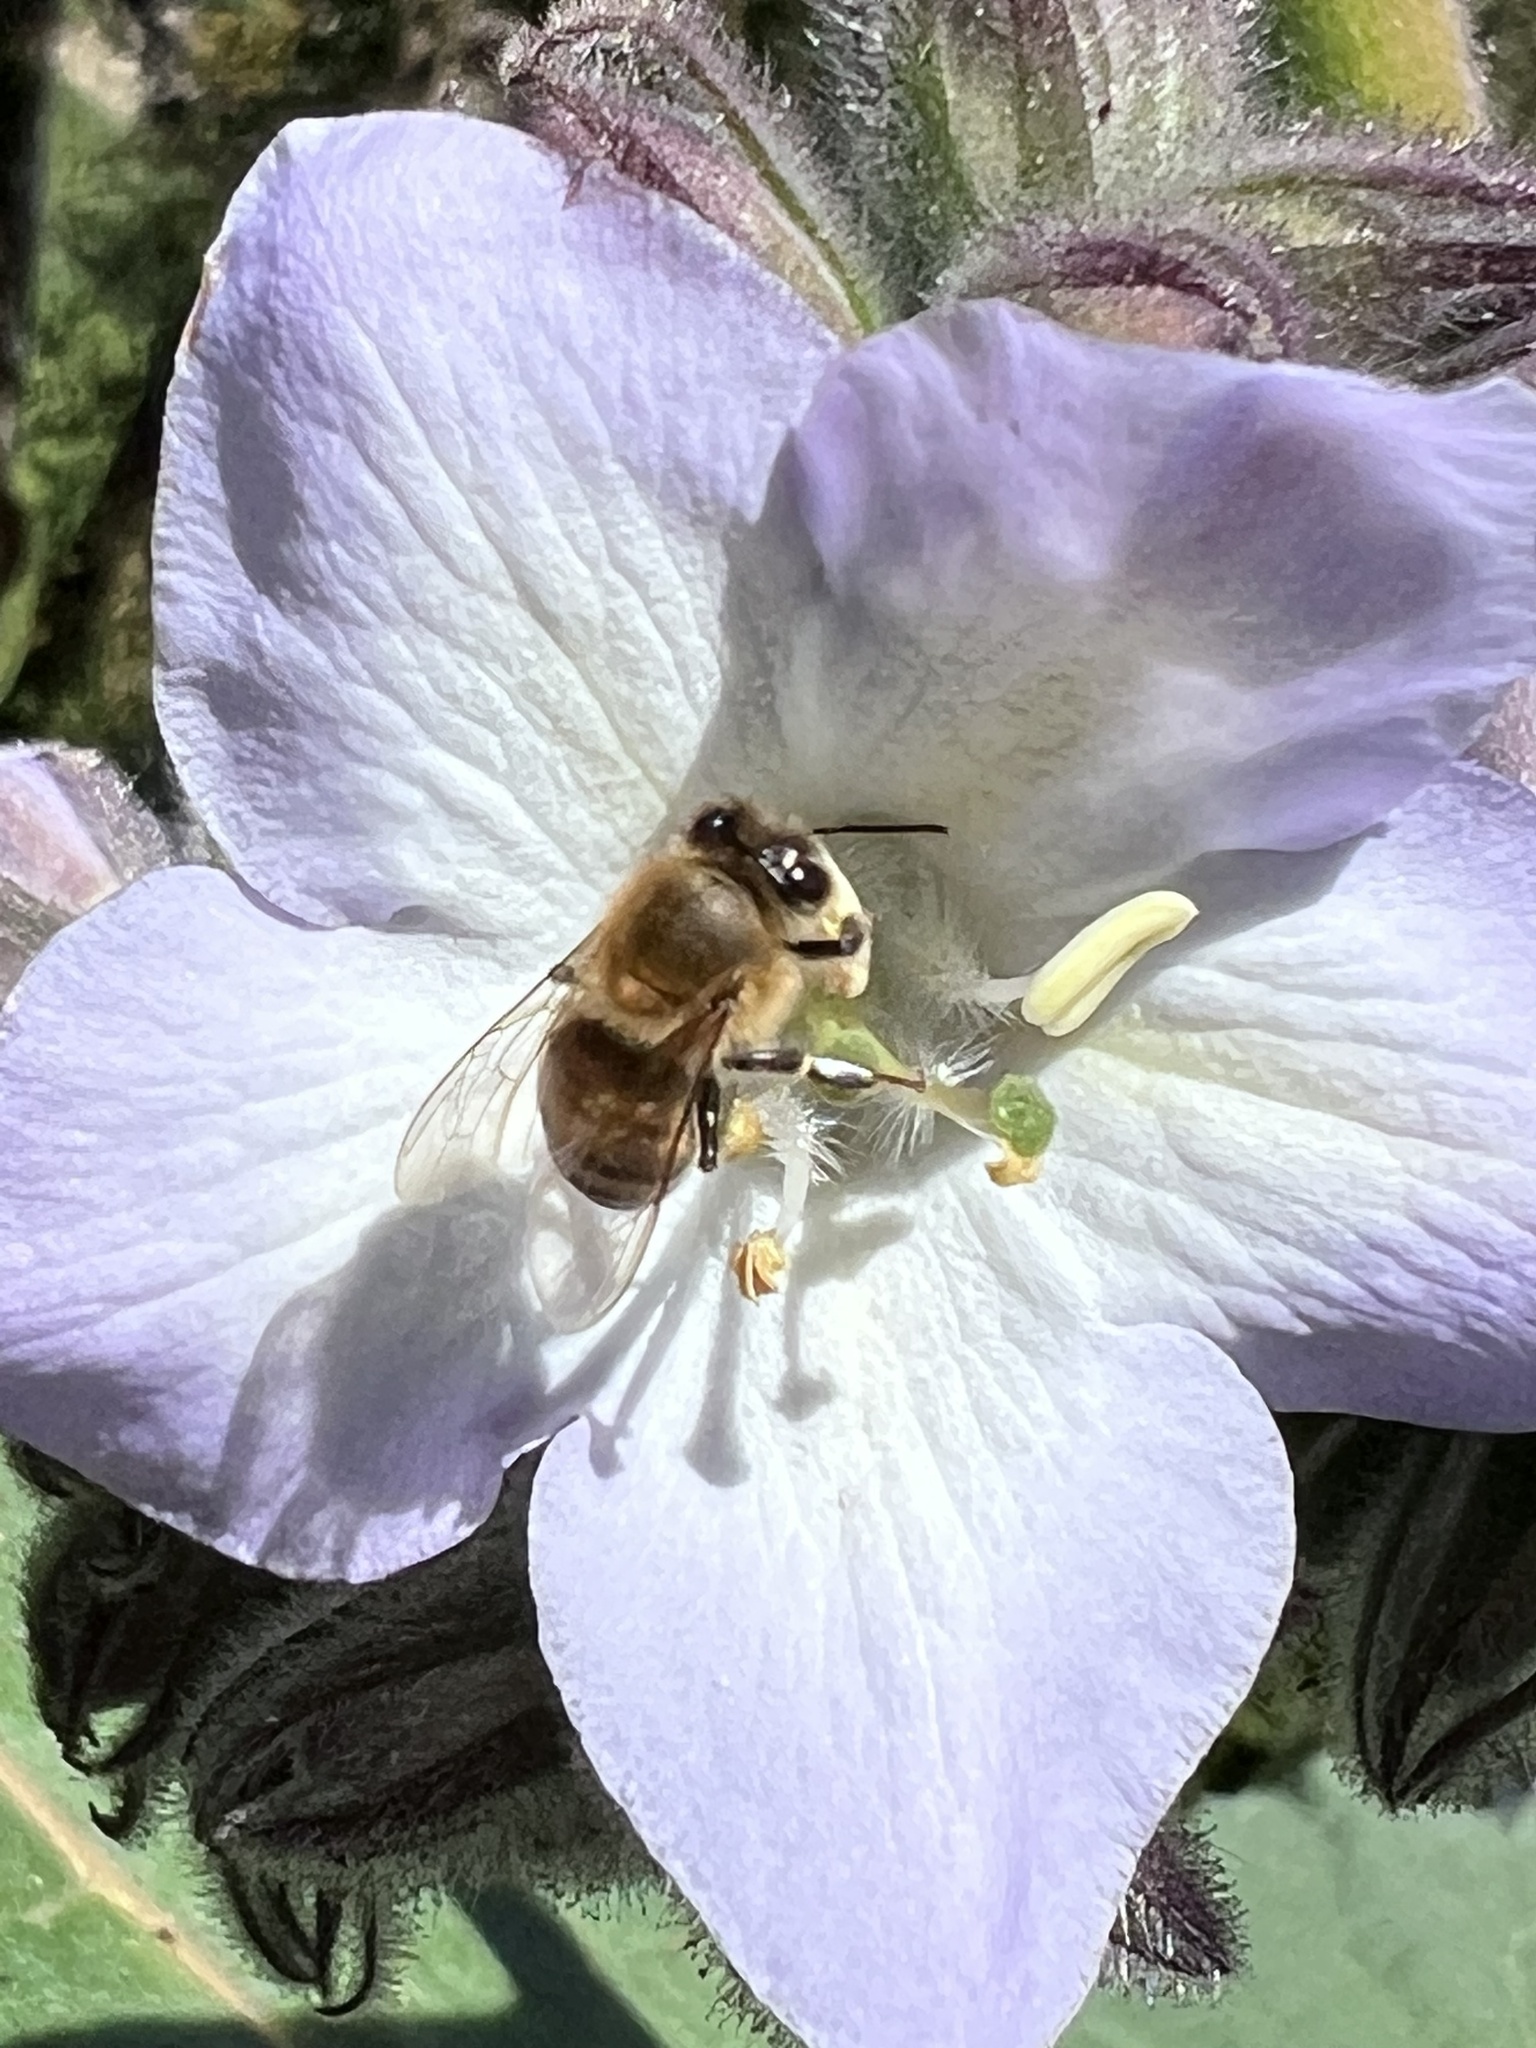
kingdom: Animalia
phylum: Arthropoda
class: Insecta
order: Hymenoptera
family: Apidae
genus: Apis
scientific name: Apis mellifera
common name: Honey bee
